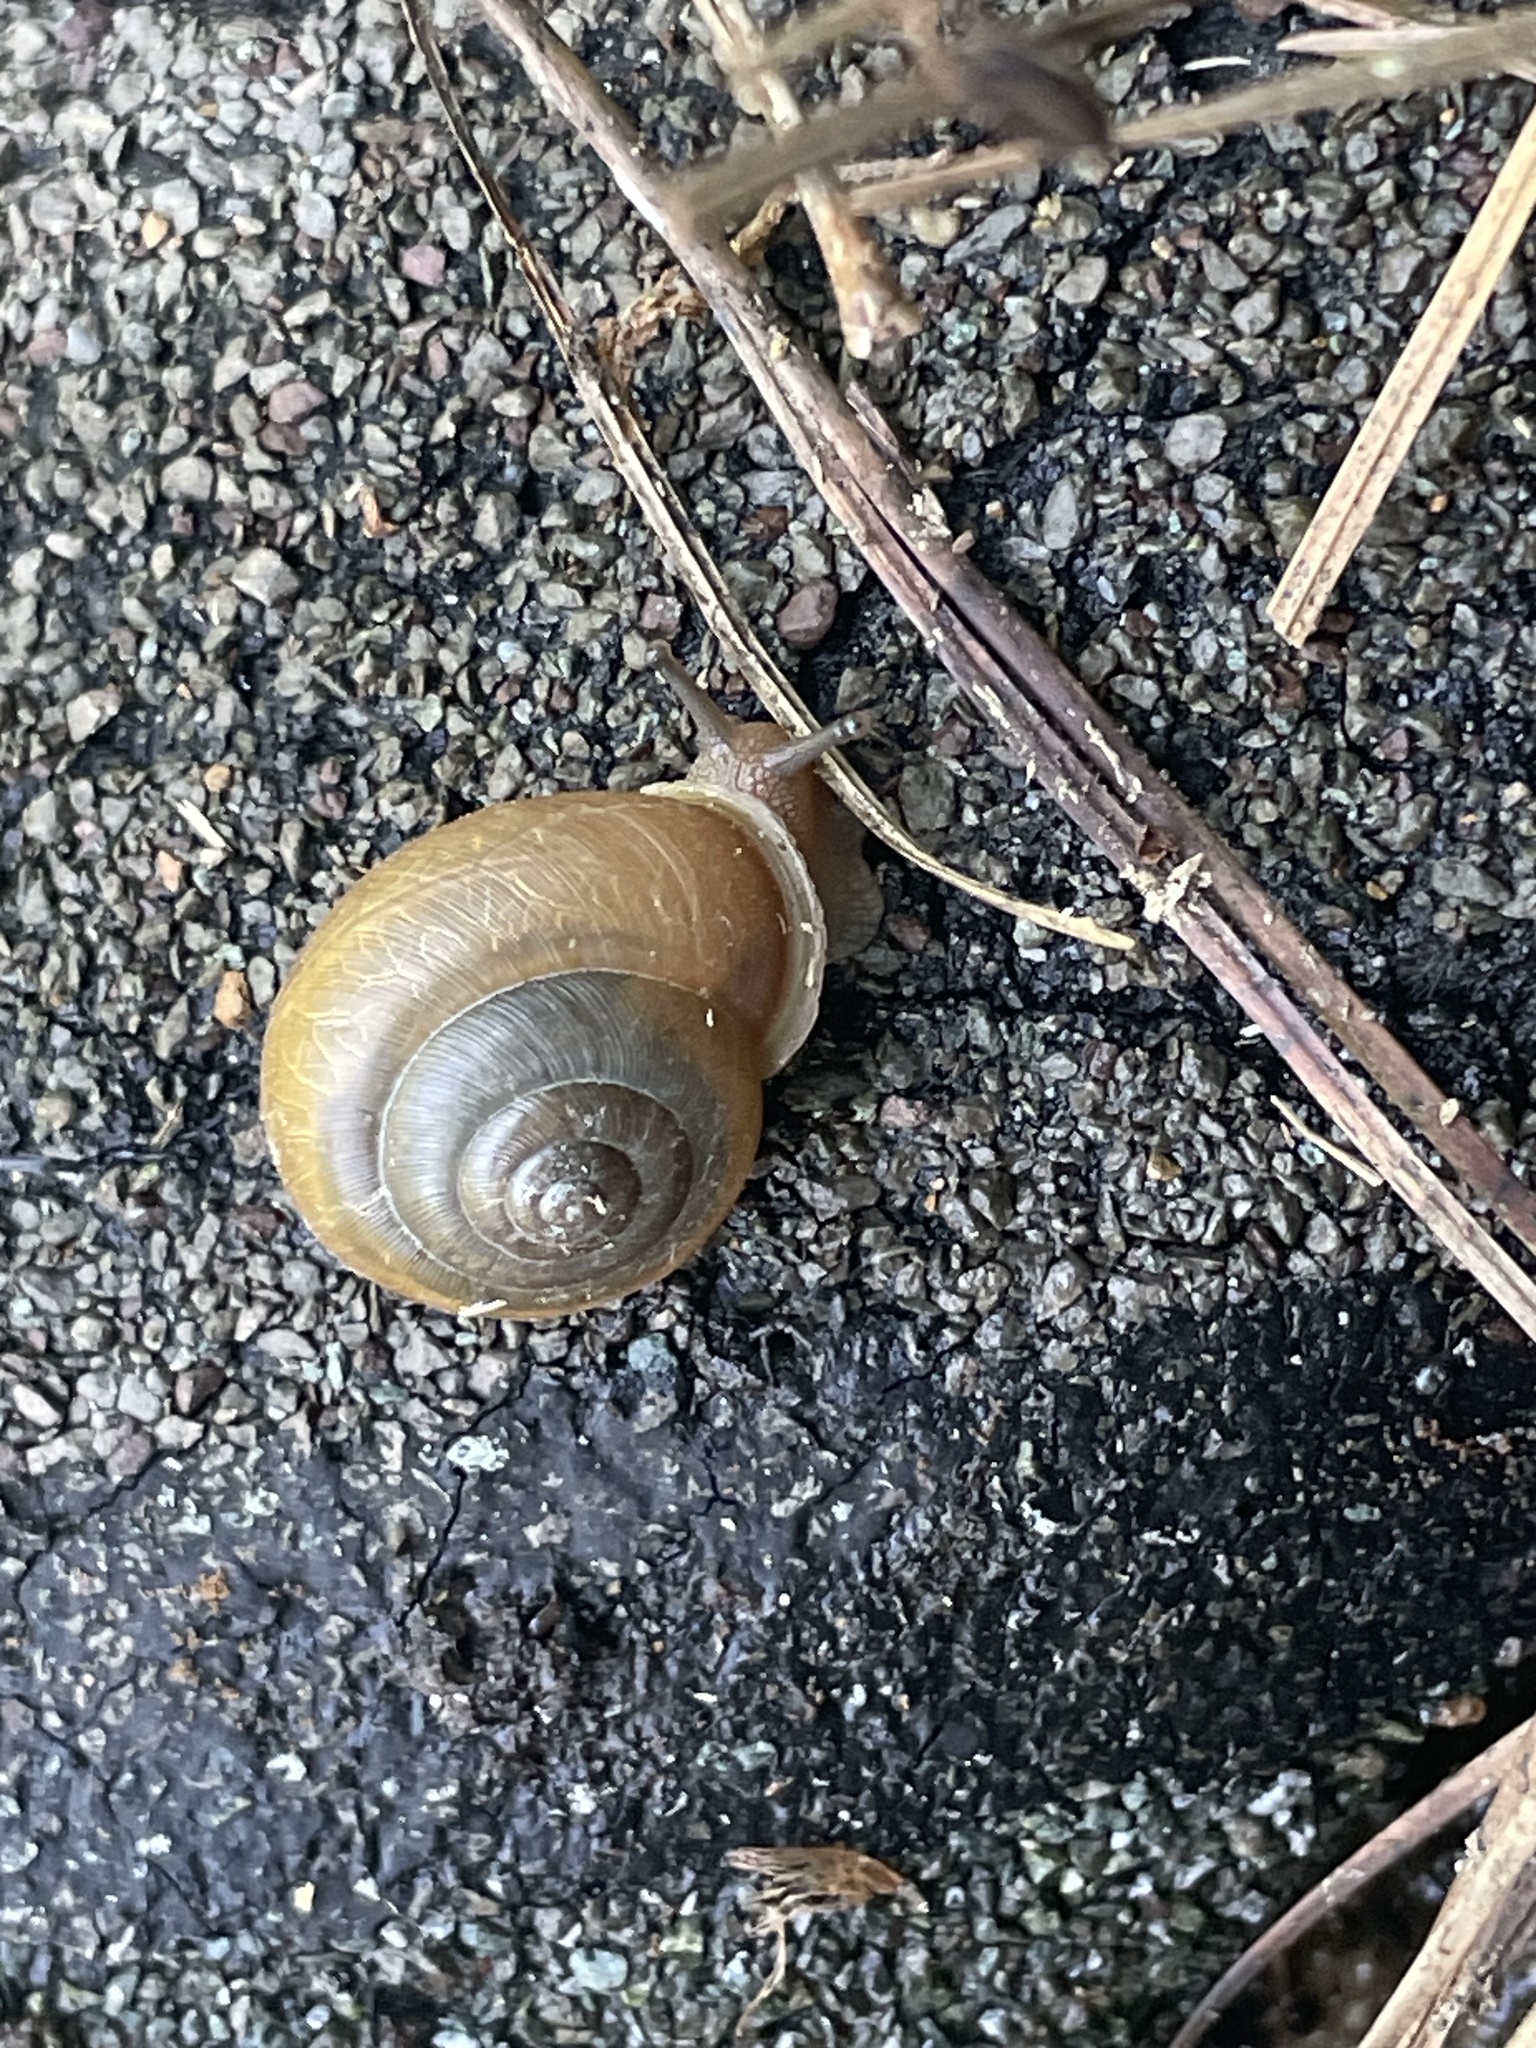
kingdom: Animalia
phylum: Mollusca
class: Gastropoda
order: Stylommatophora
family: Polygyridae
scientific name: Polygyridae
